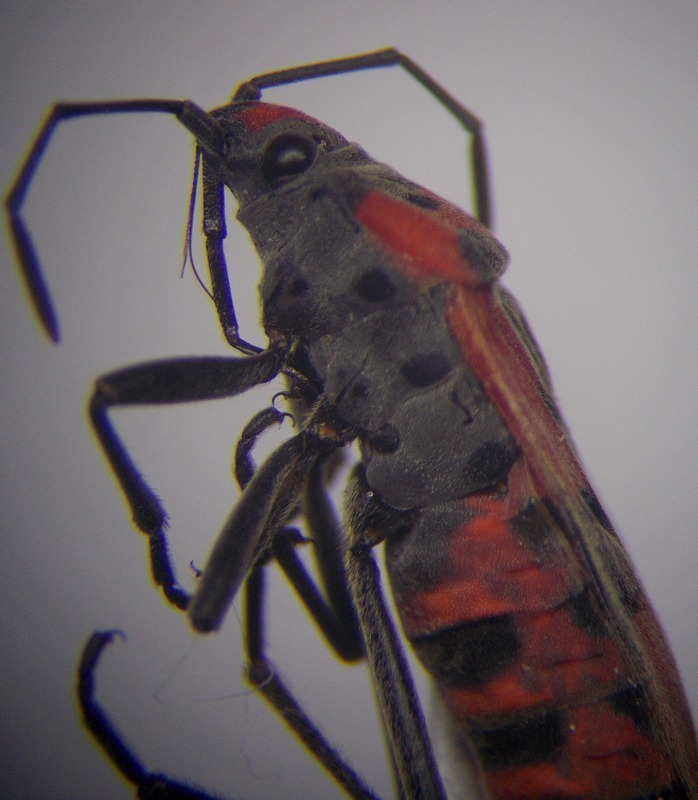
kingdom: Animalia
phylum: Arthropoda
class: Insecta
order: Hemiptera
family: Lygaeidae
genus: Lygaeus
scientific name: Lygaeus equestris
